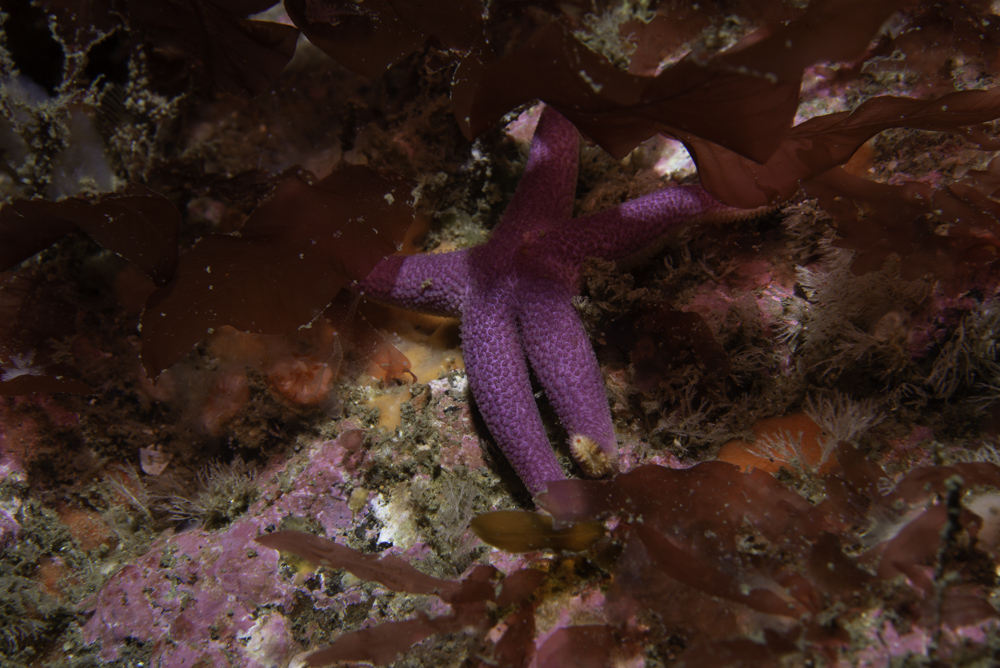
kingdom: Animalia
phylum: Echinodermata
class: Asteroidea
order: Spinulosida
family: Echinasteridae
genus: Henricia
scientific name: Henricia oculata
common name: Bloody henry starfish
